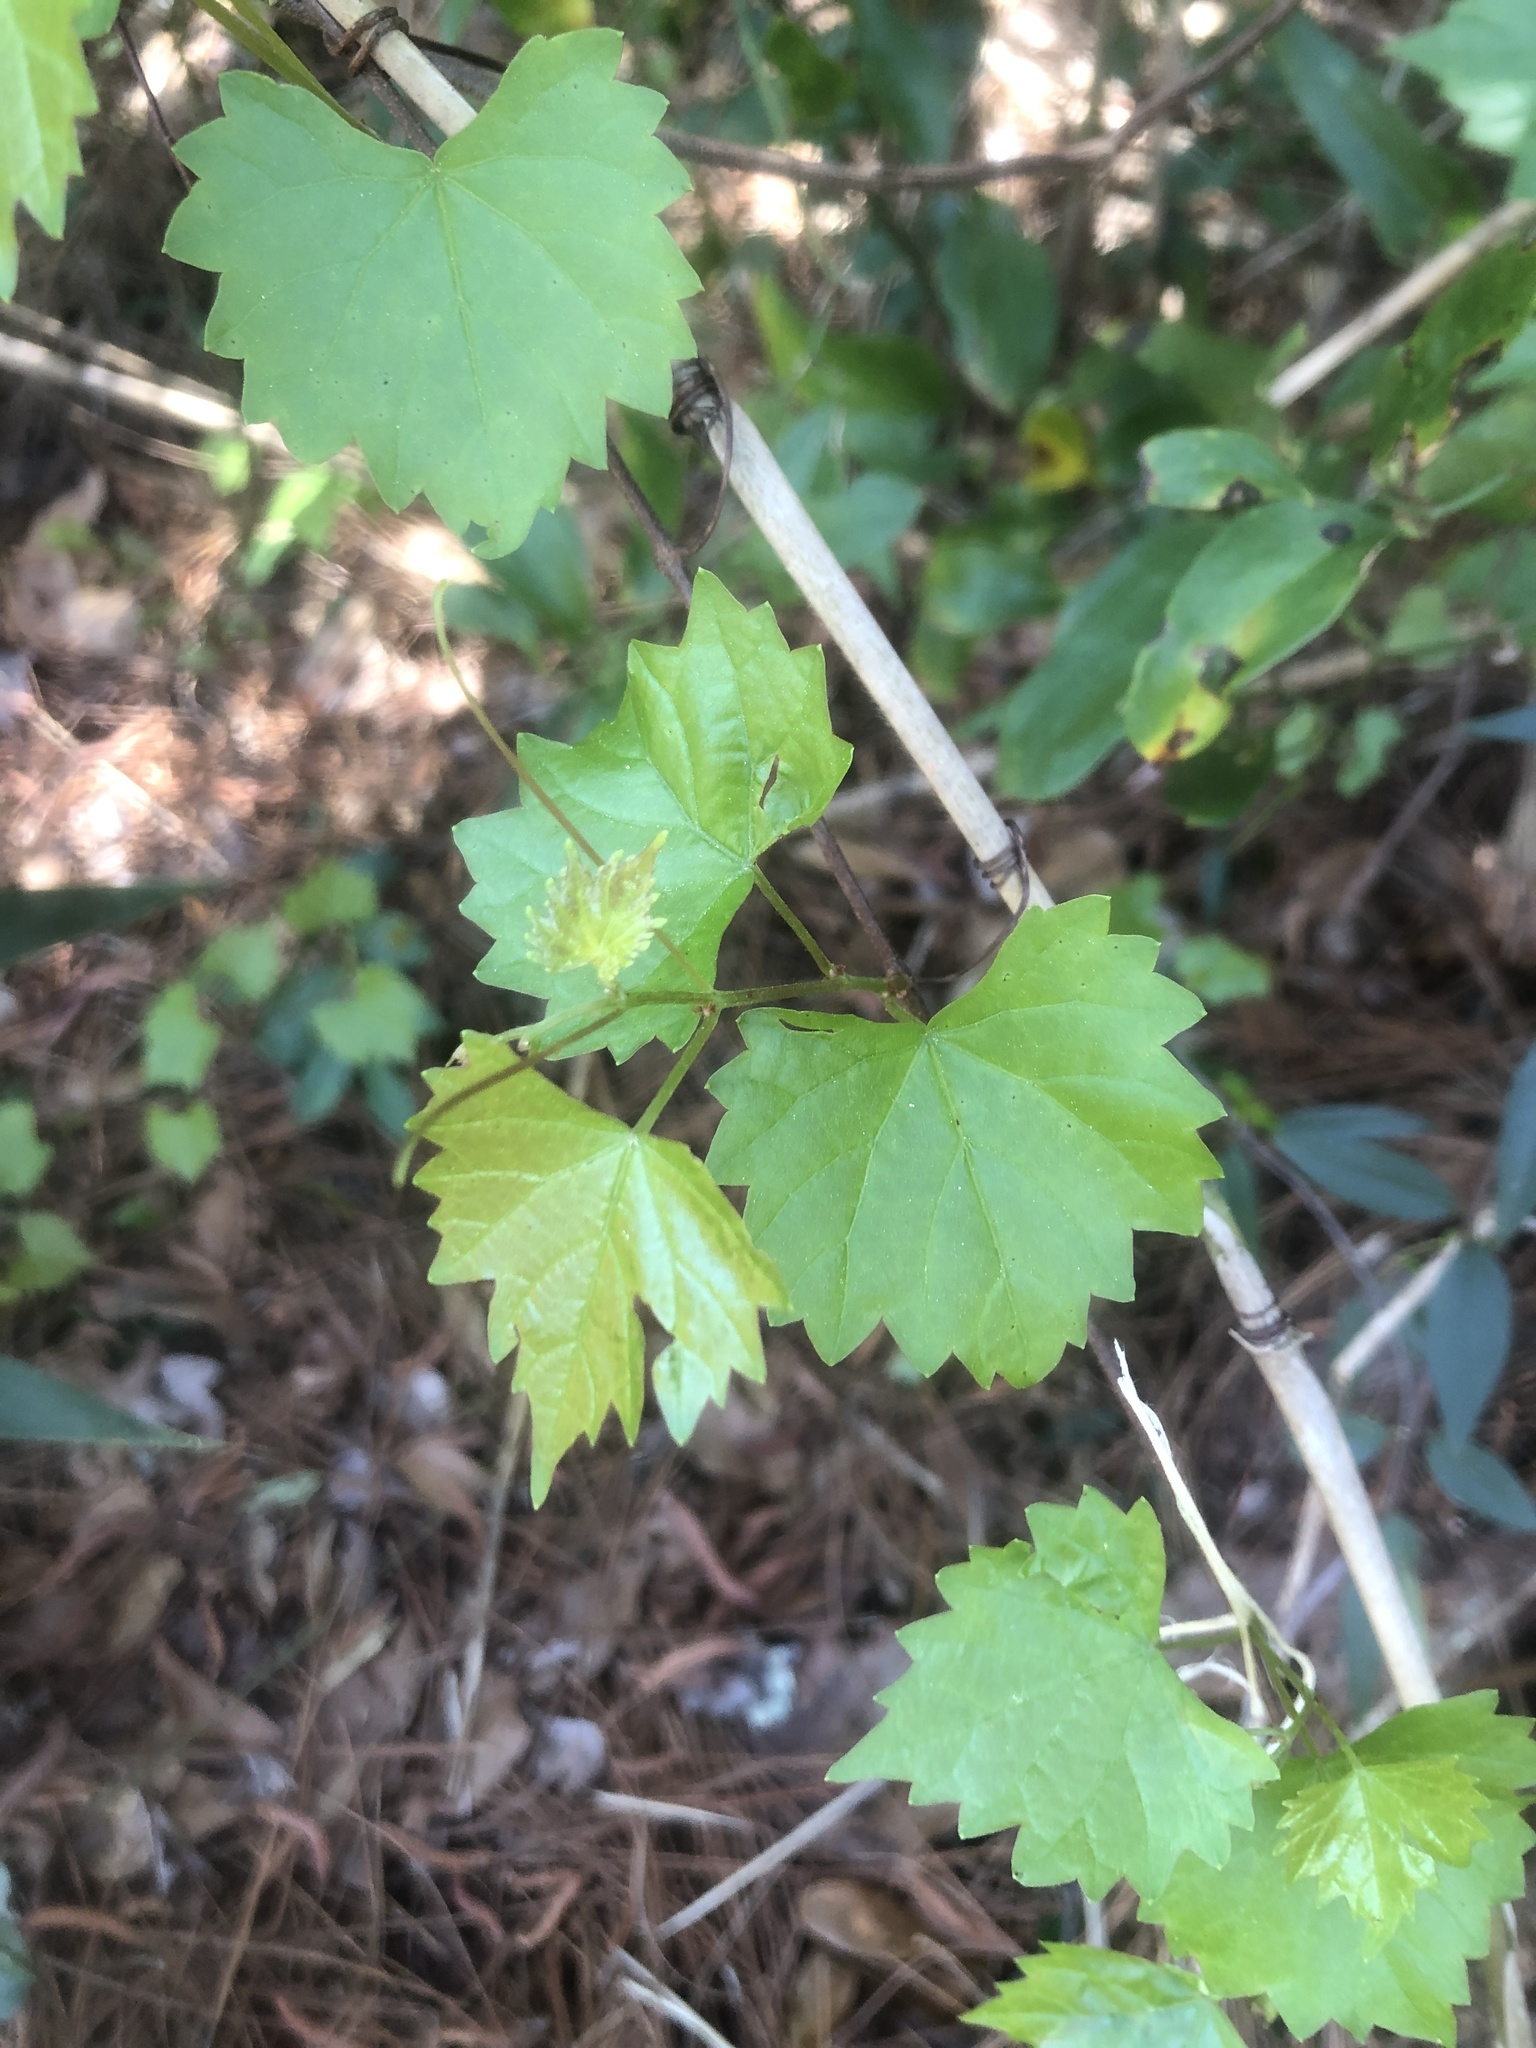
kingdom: Plantae
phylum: Tracheophyta
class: Magnoliopsida
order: Vitales
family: Vitaceae
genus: Vitis
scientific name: Vitis rotundifolia
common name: Muscadine grape
